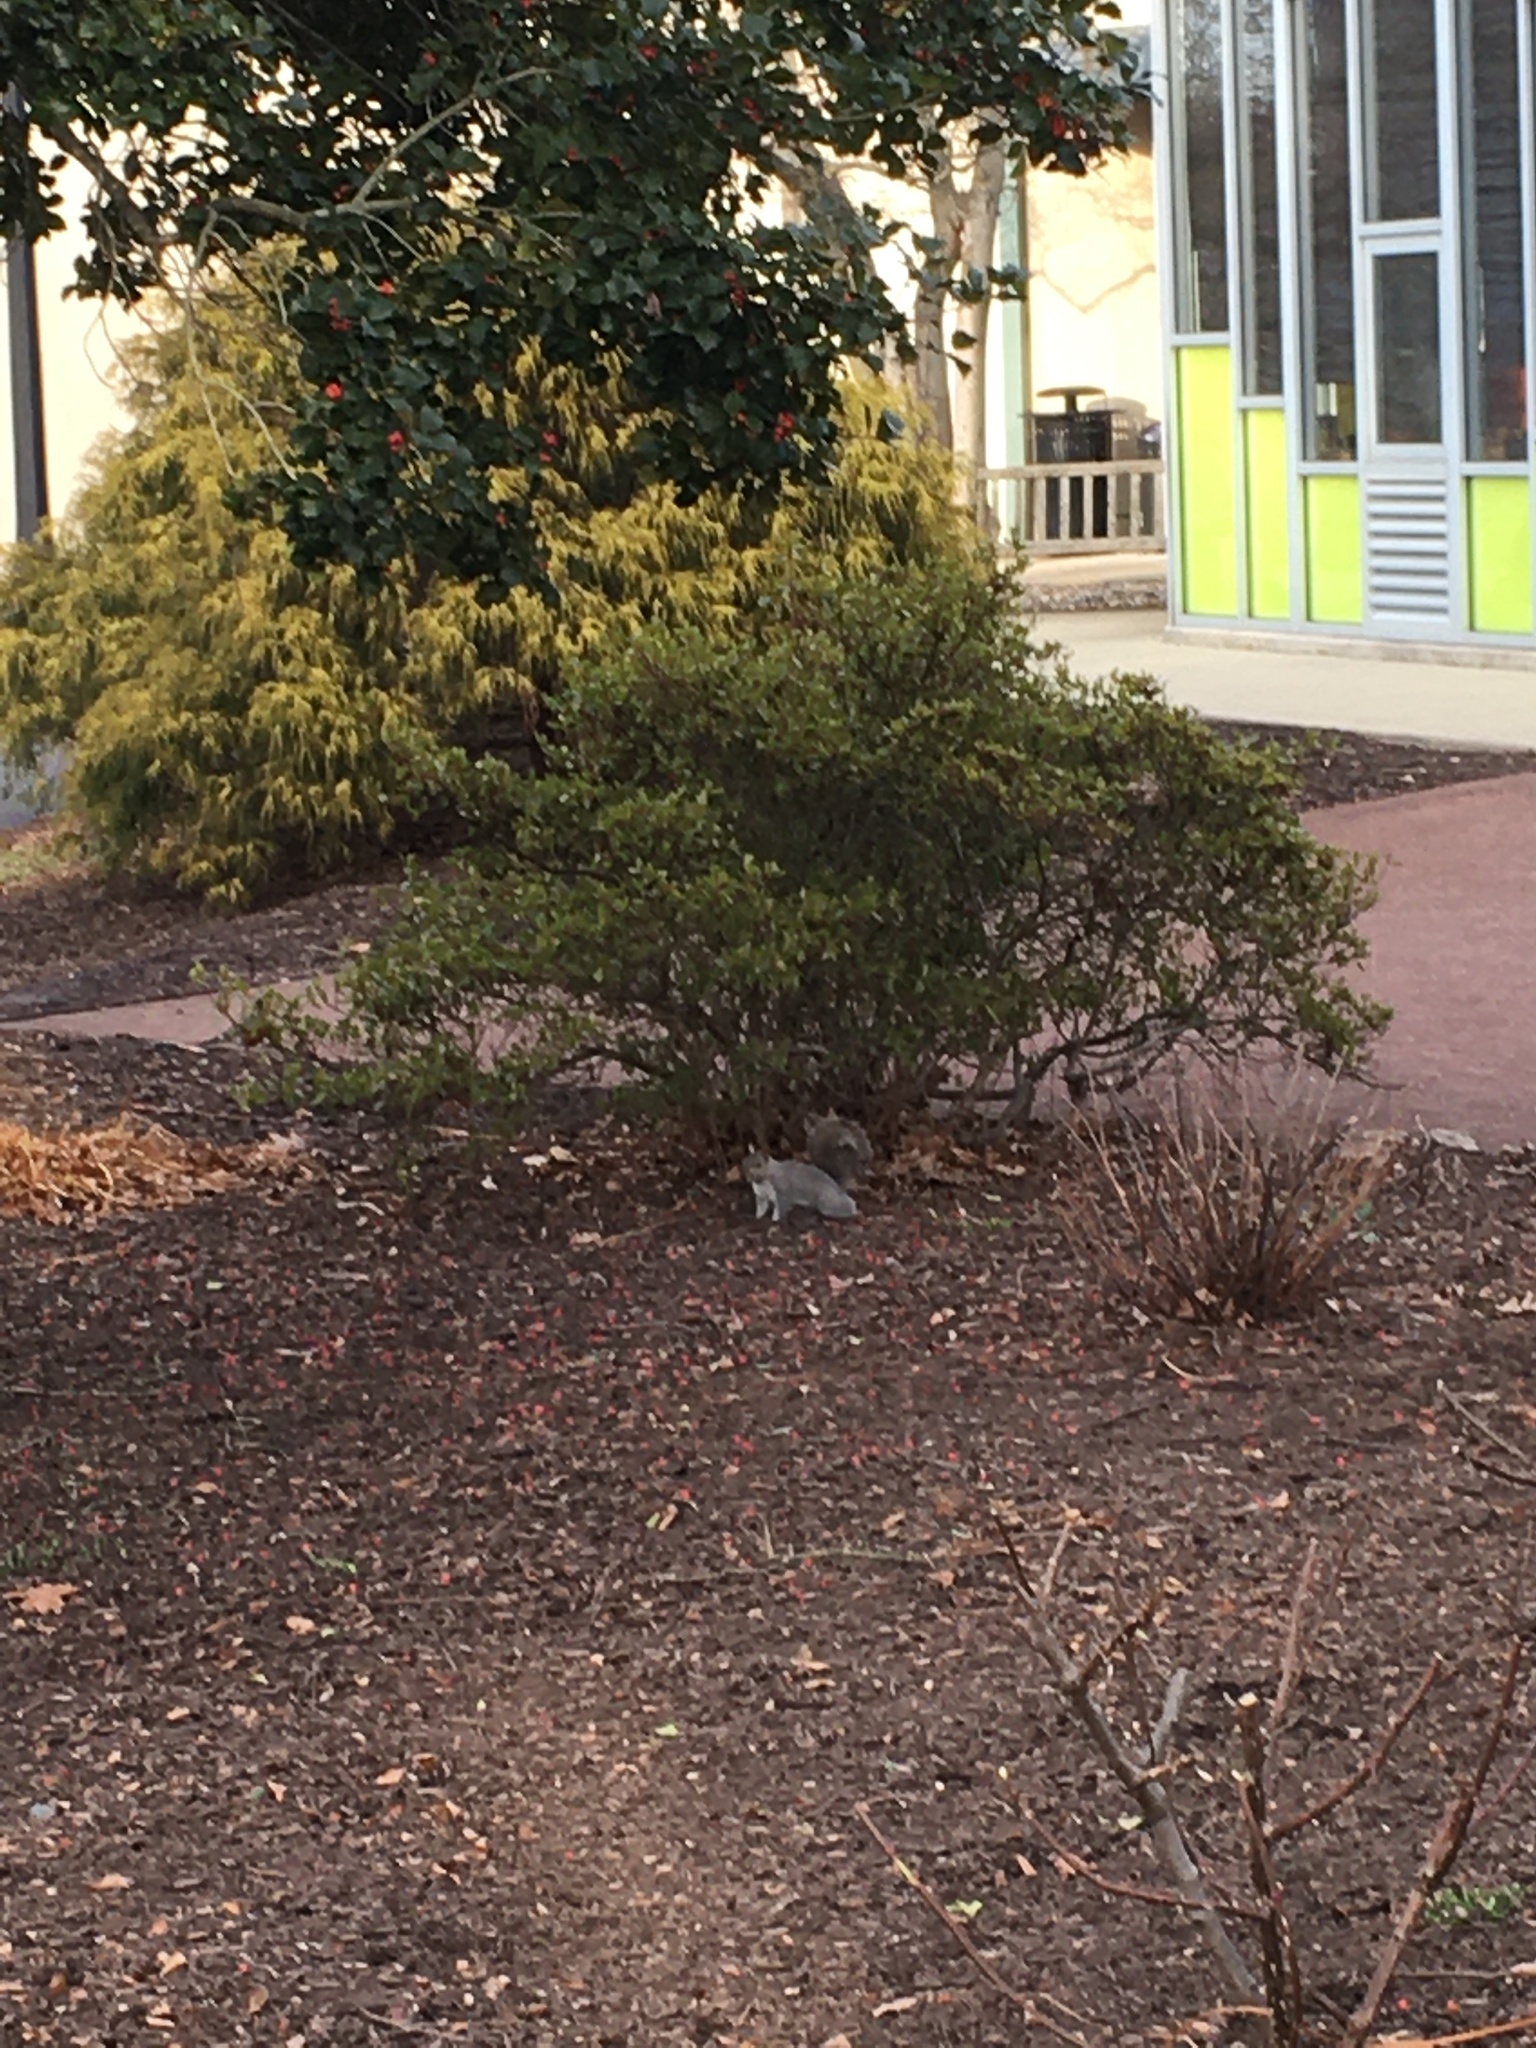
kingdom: Animalia
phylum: Chordata
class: Mammalia
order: Rodentia
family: Sciuridae
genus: Sciurus
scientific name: Sciurus carolinensis
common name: Eastern gray squirrel
